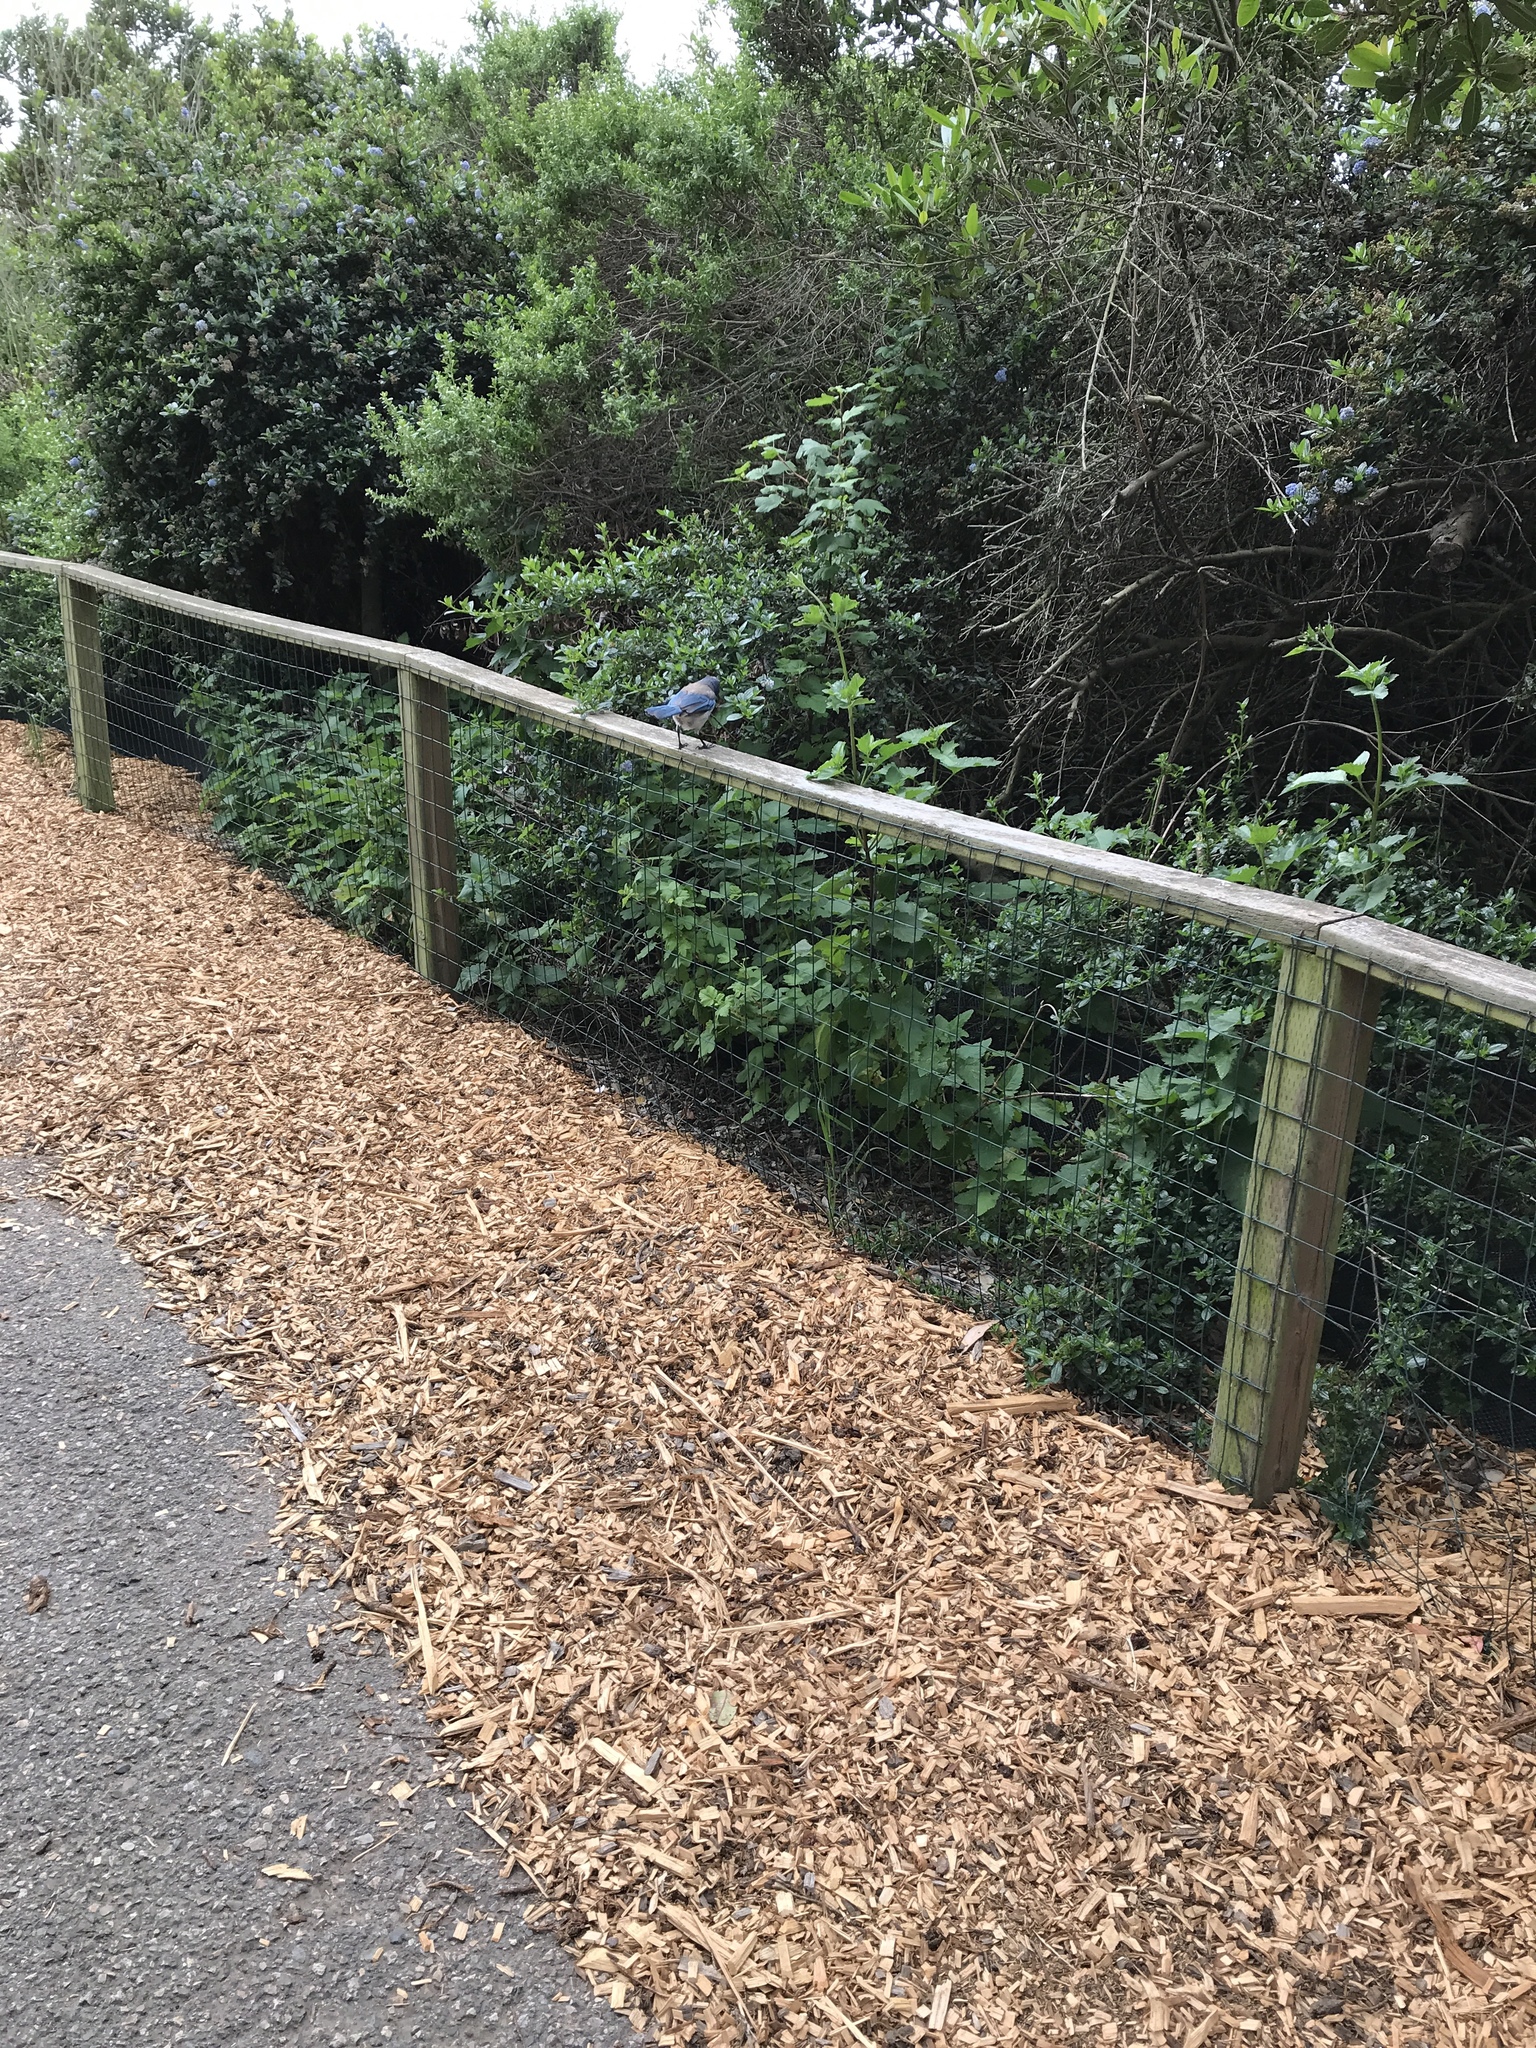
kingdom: Animalia
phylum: Chordata
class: Aves
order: Passeriformes
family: Corvidae
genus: Aphelocoma
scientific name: Aphelocoma californica
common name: California scrub-jay
